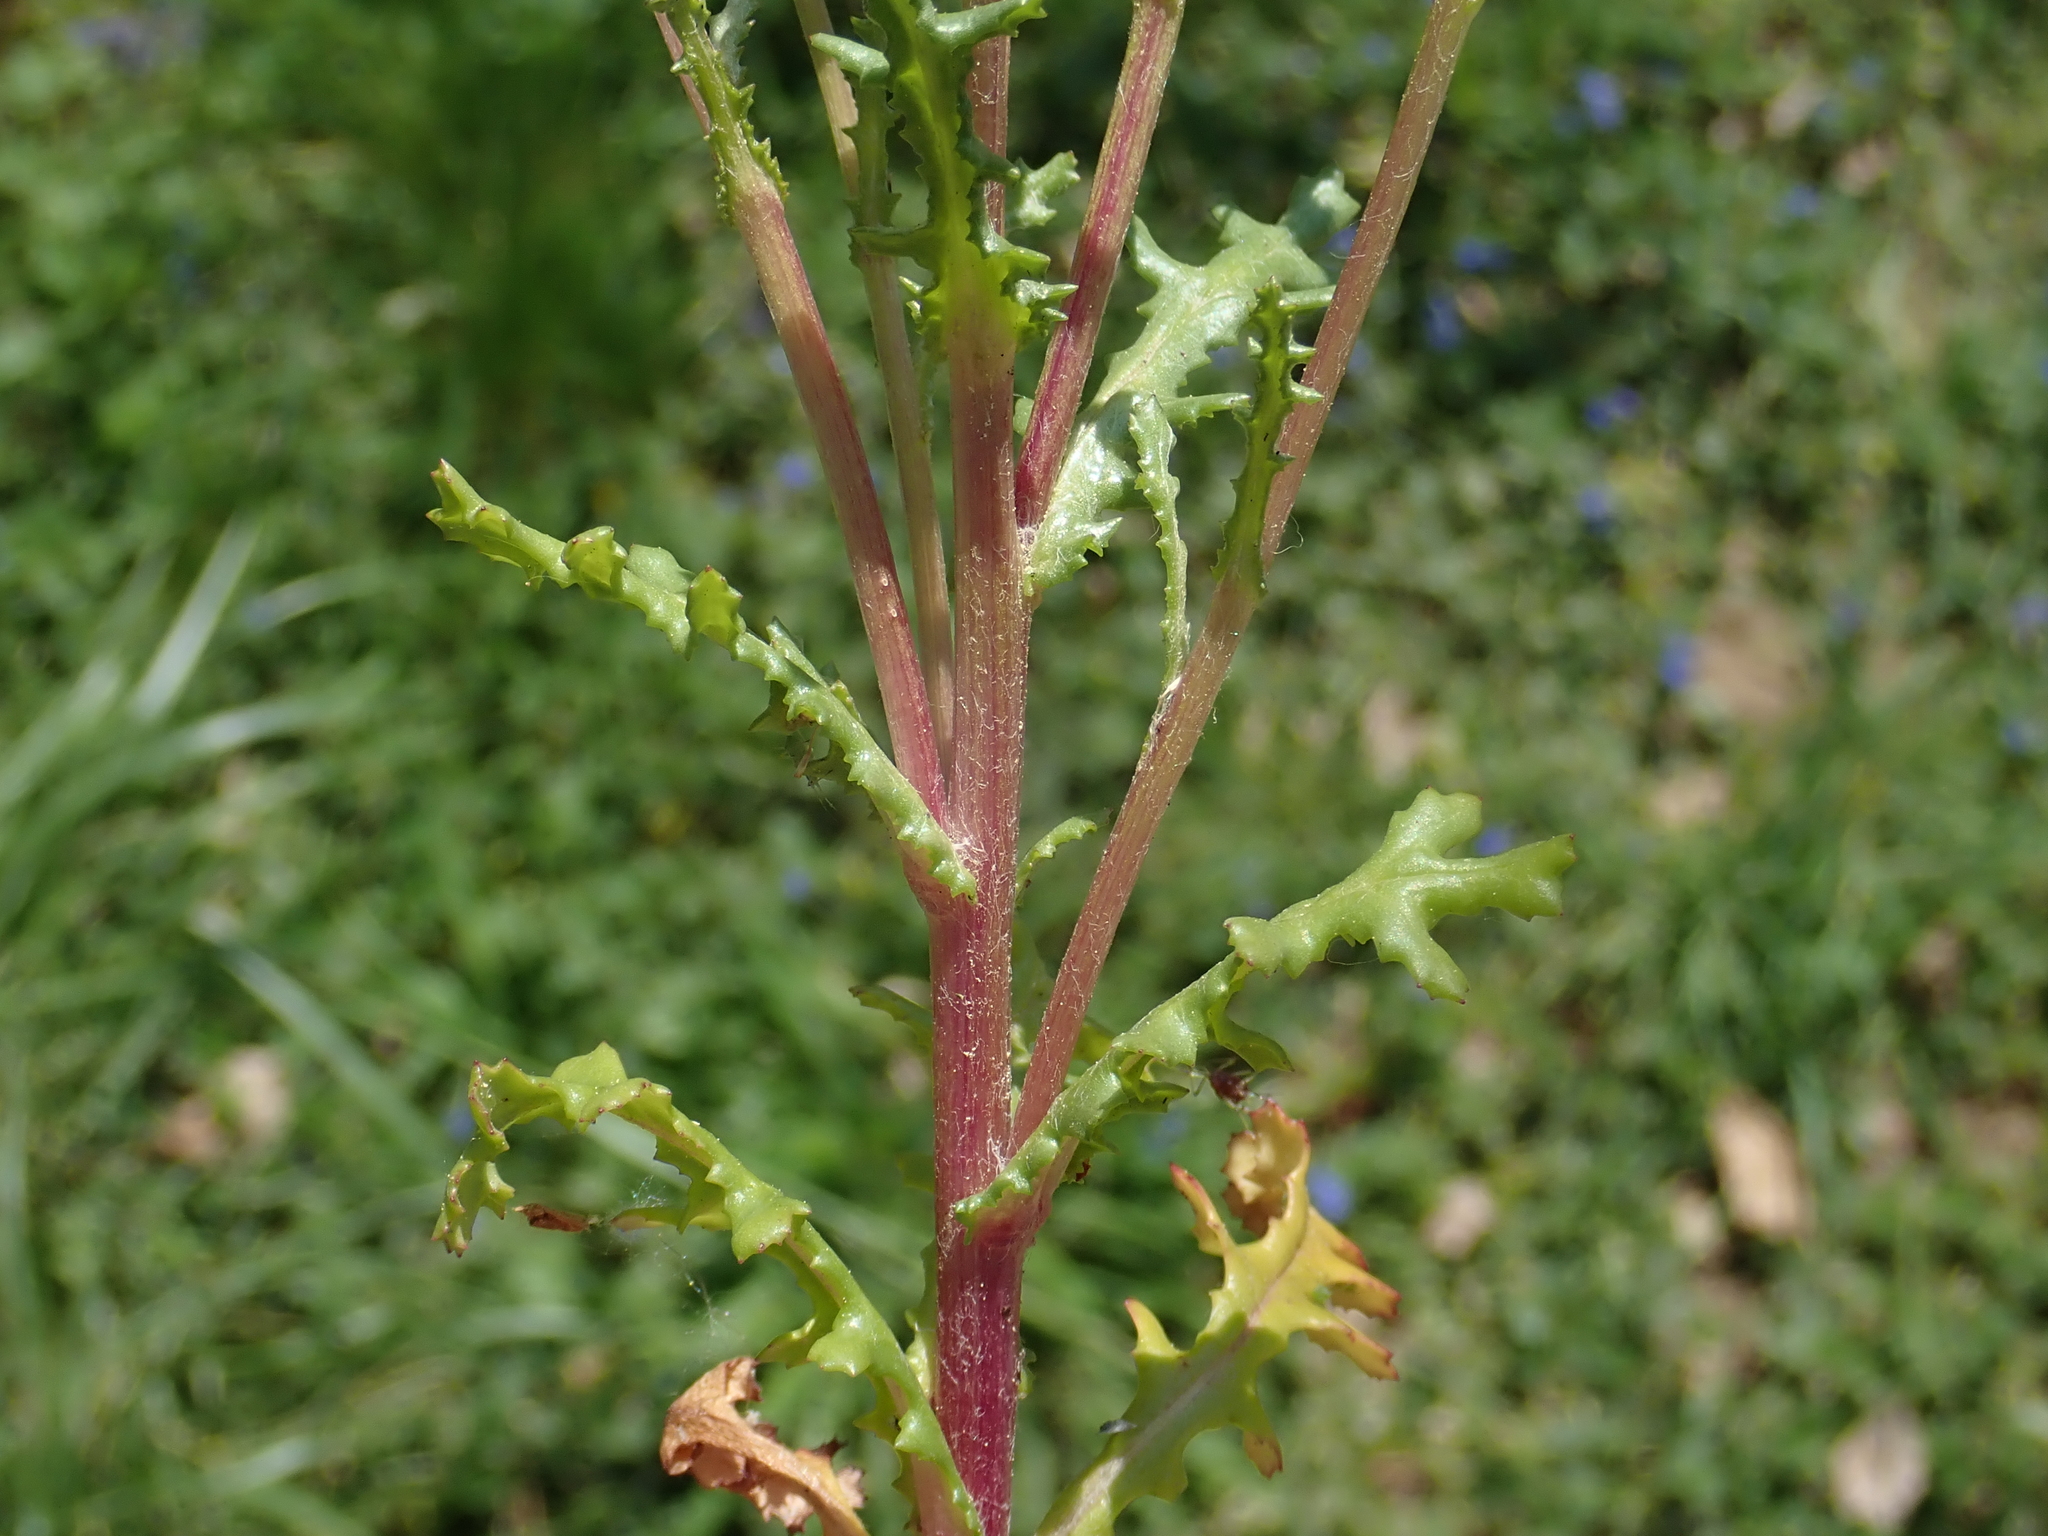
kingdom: Plantae
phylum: Tracheophyta
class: Magnoliopsida
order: Asterales
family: Asteraceae
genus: Senecio
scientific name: Senecio vulgaris
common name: Old-man-in-the-spring
